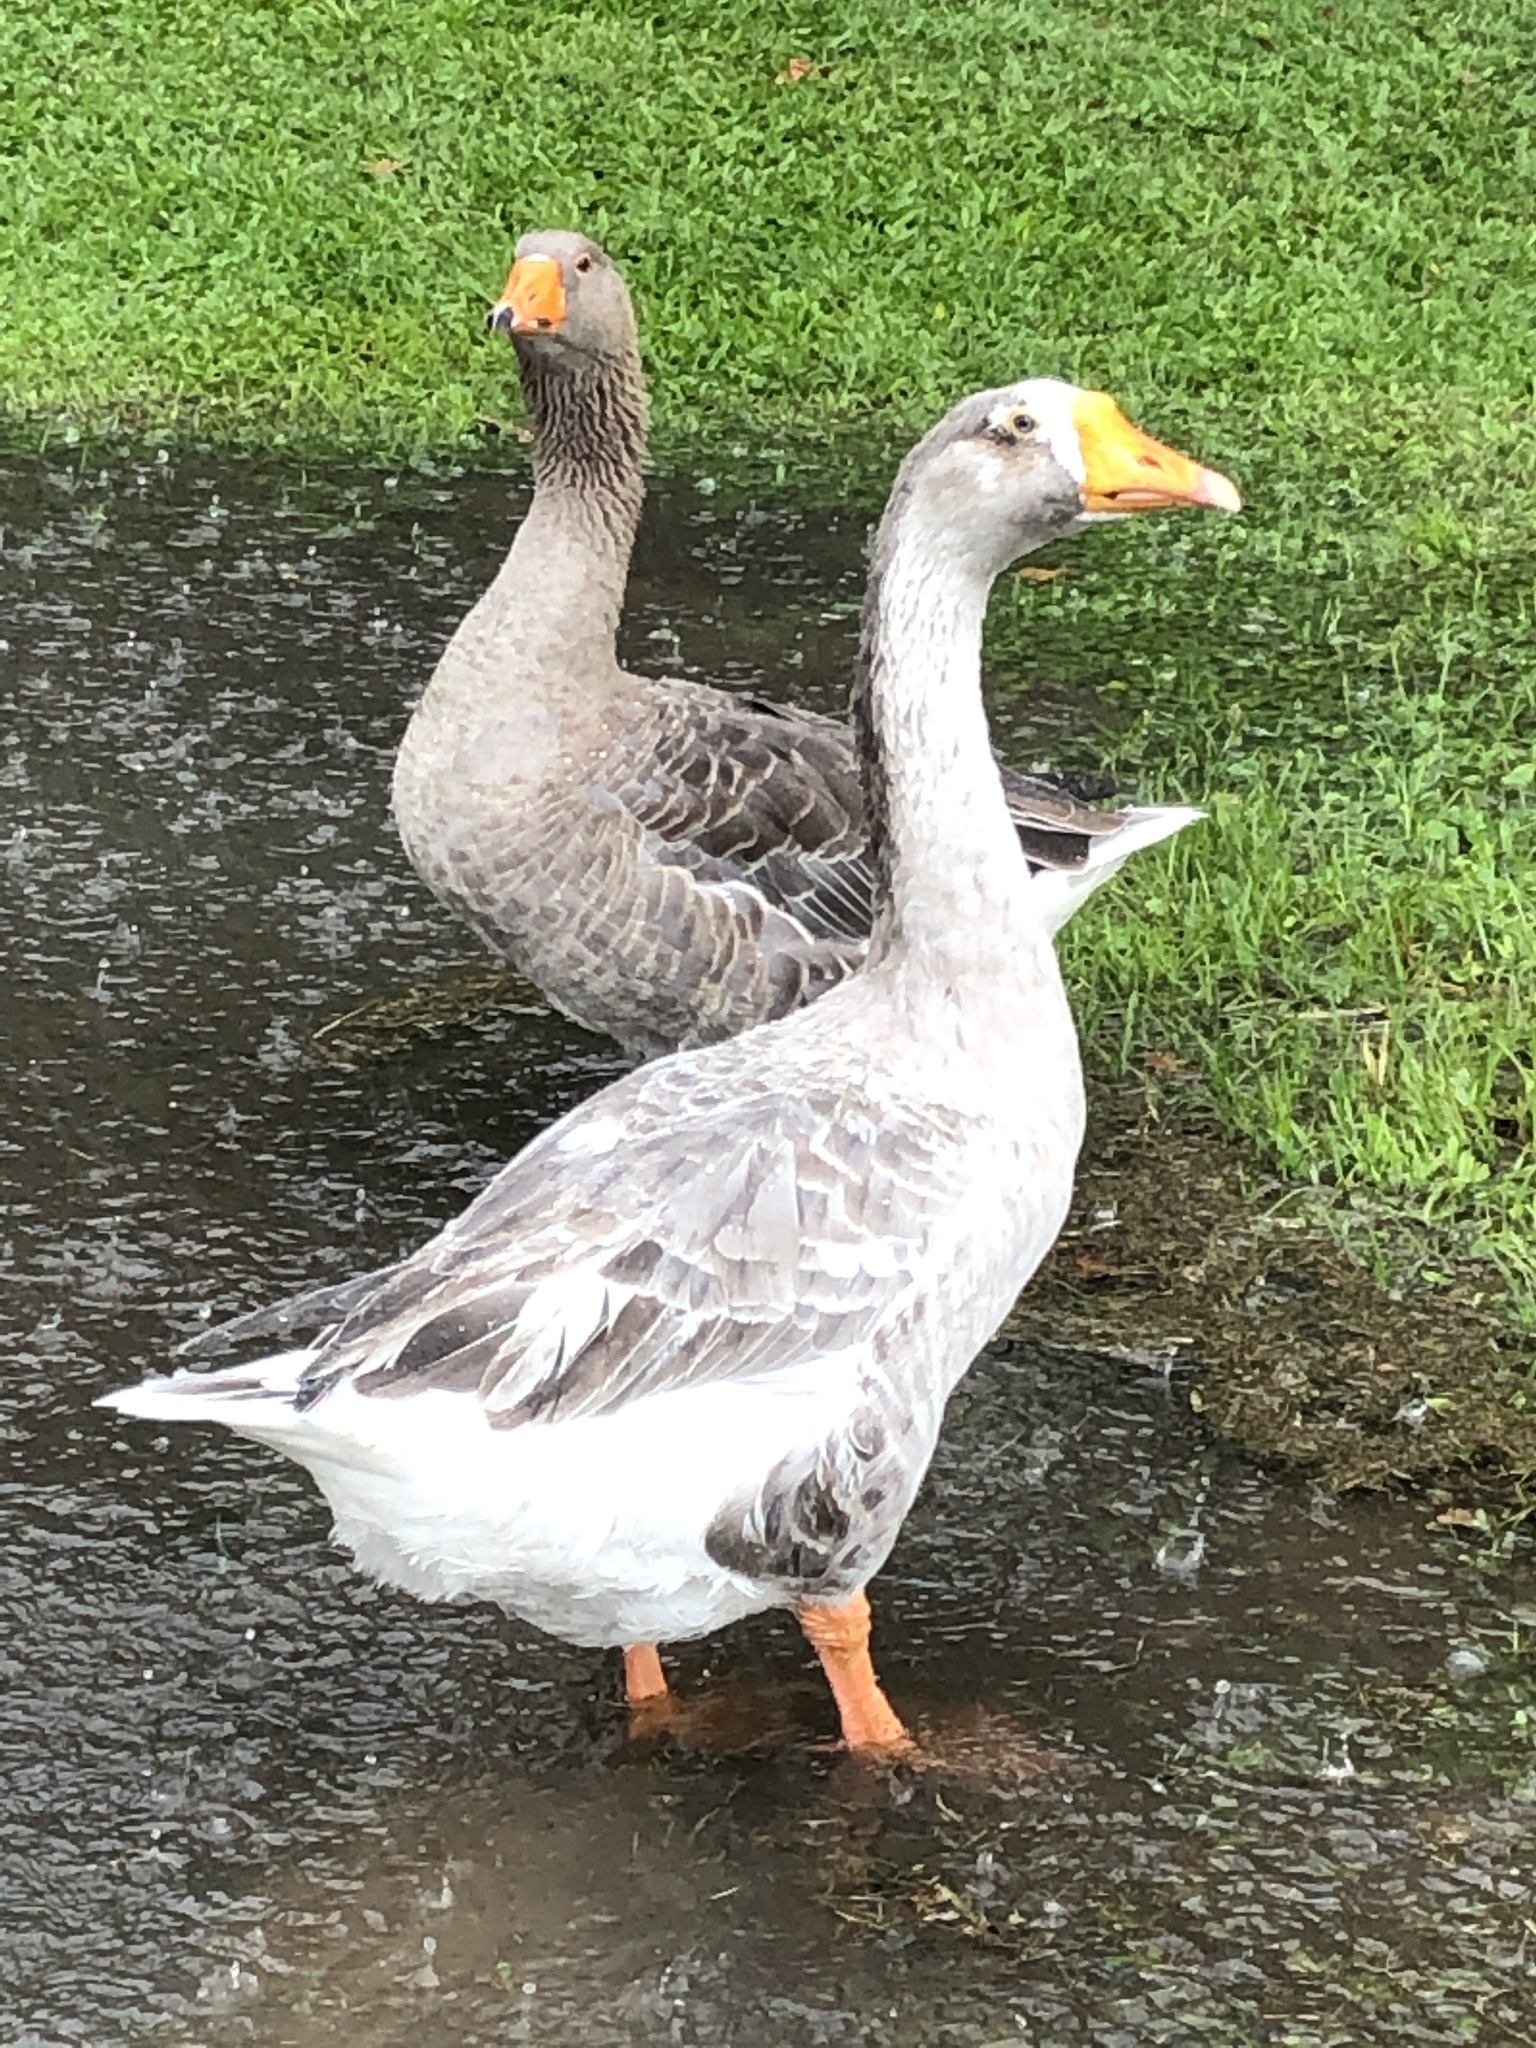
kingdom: Animalia
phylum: Chordata
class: Aves
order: Anseriformes
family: Anatidae
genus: Anser
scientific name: Anser
